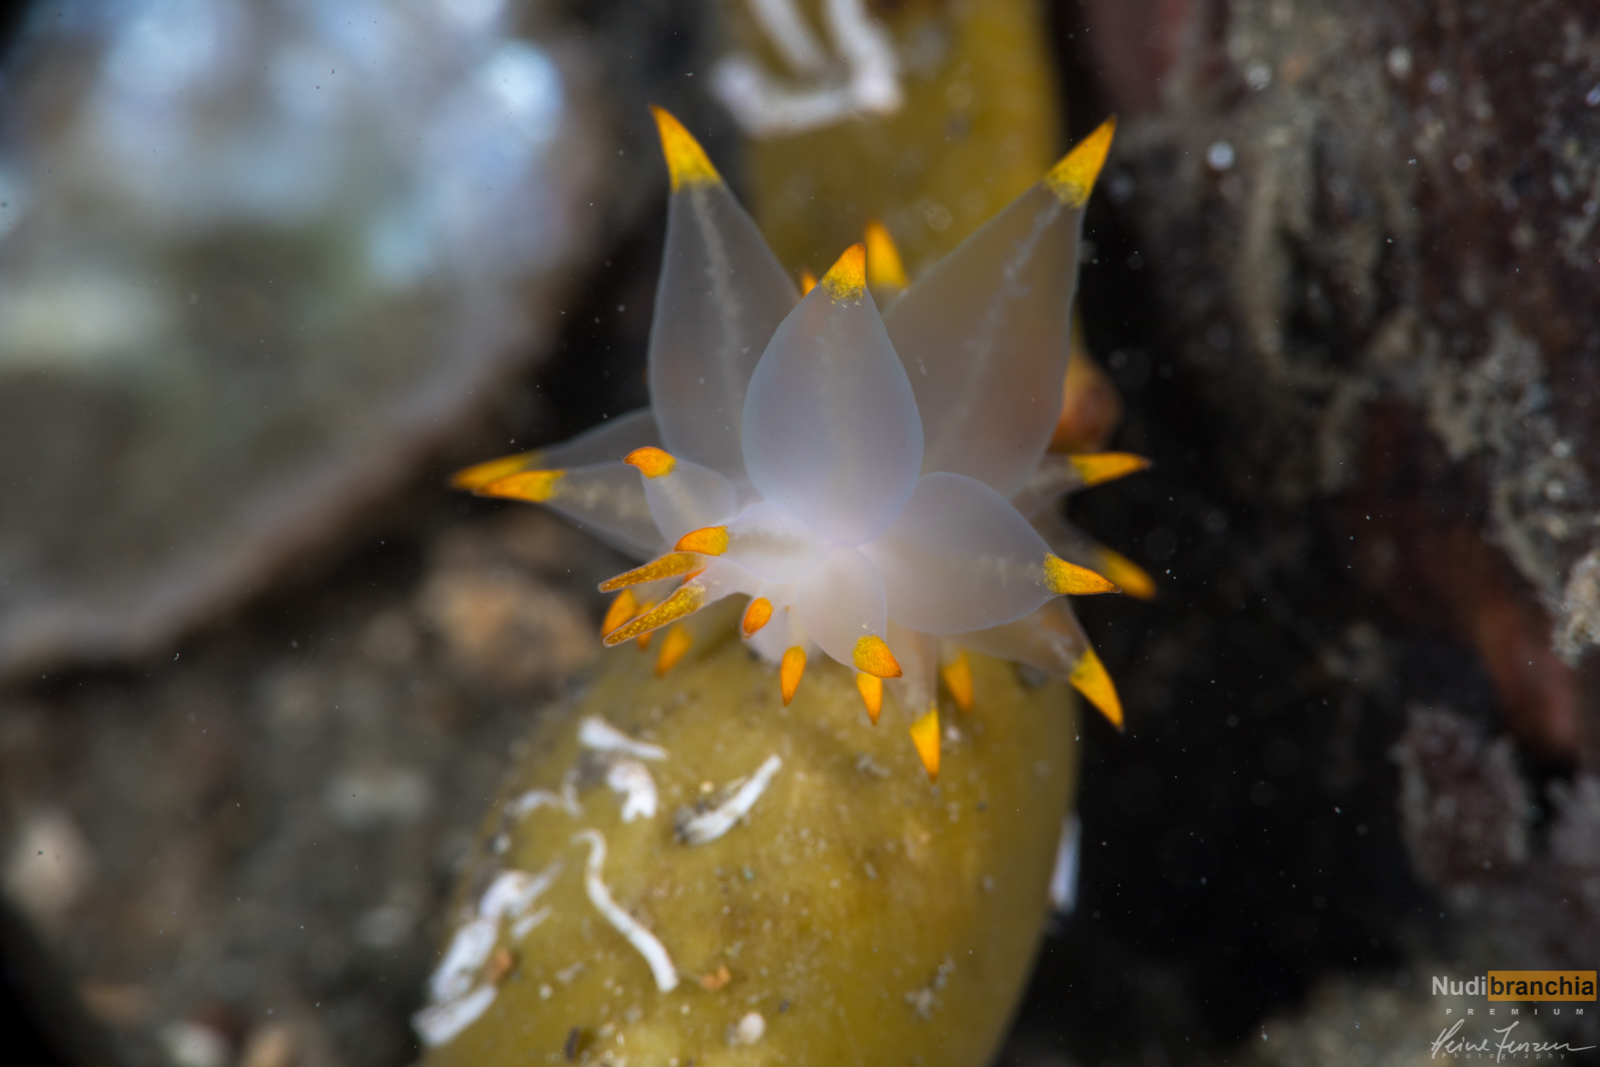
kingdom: Animalia
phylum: Mollusca
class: Gastropoda
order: Nudibranchia
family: Eubranchidae
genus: Amphorina
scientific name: Amphorina farrani
